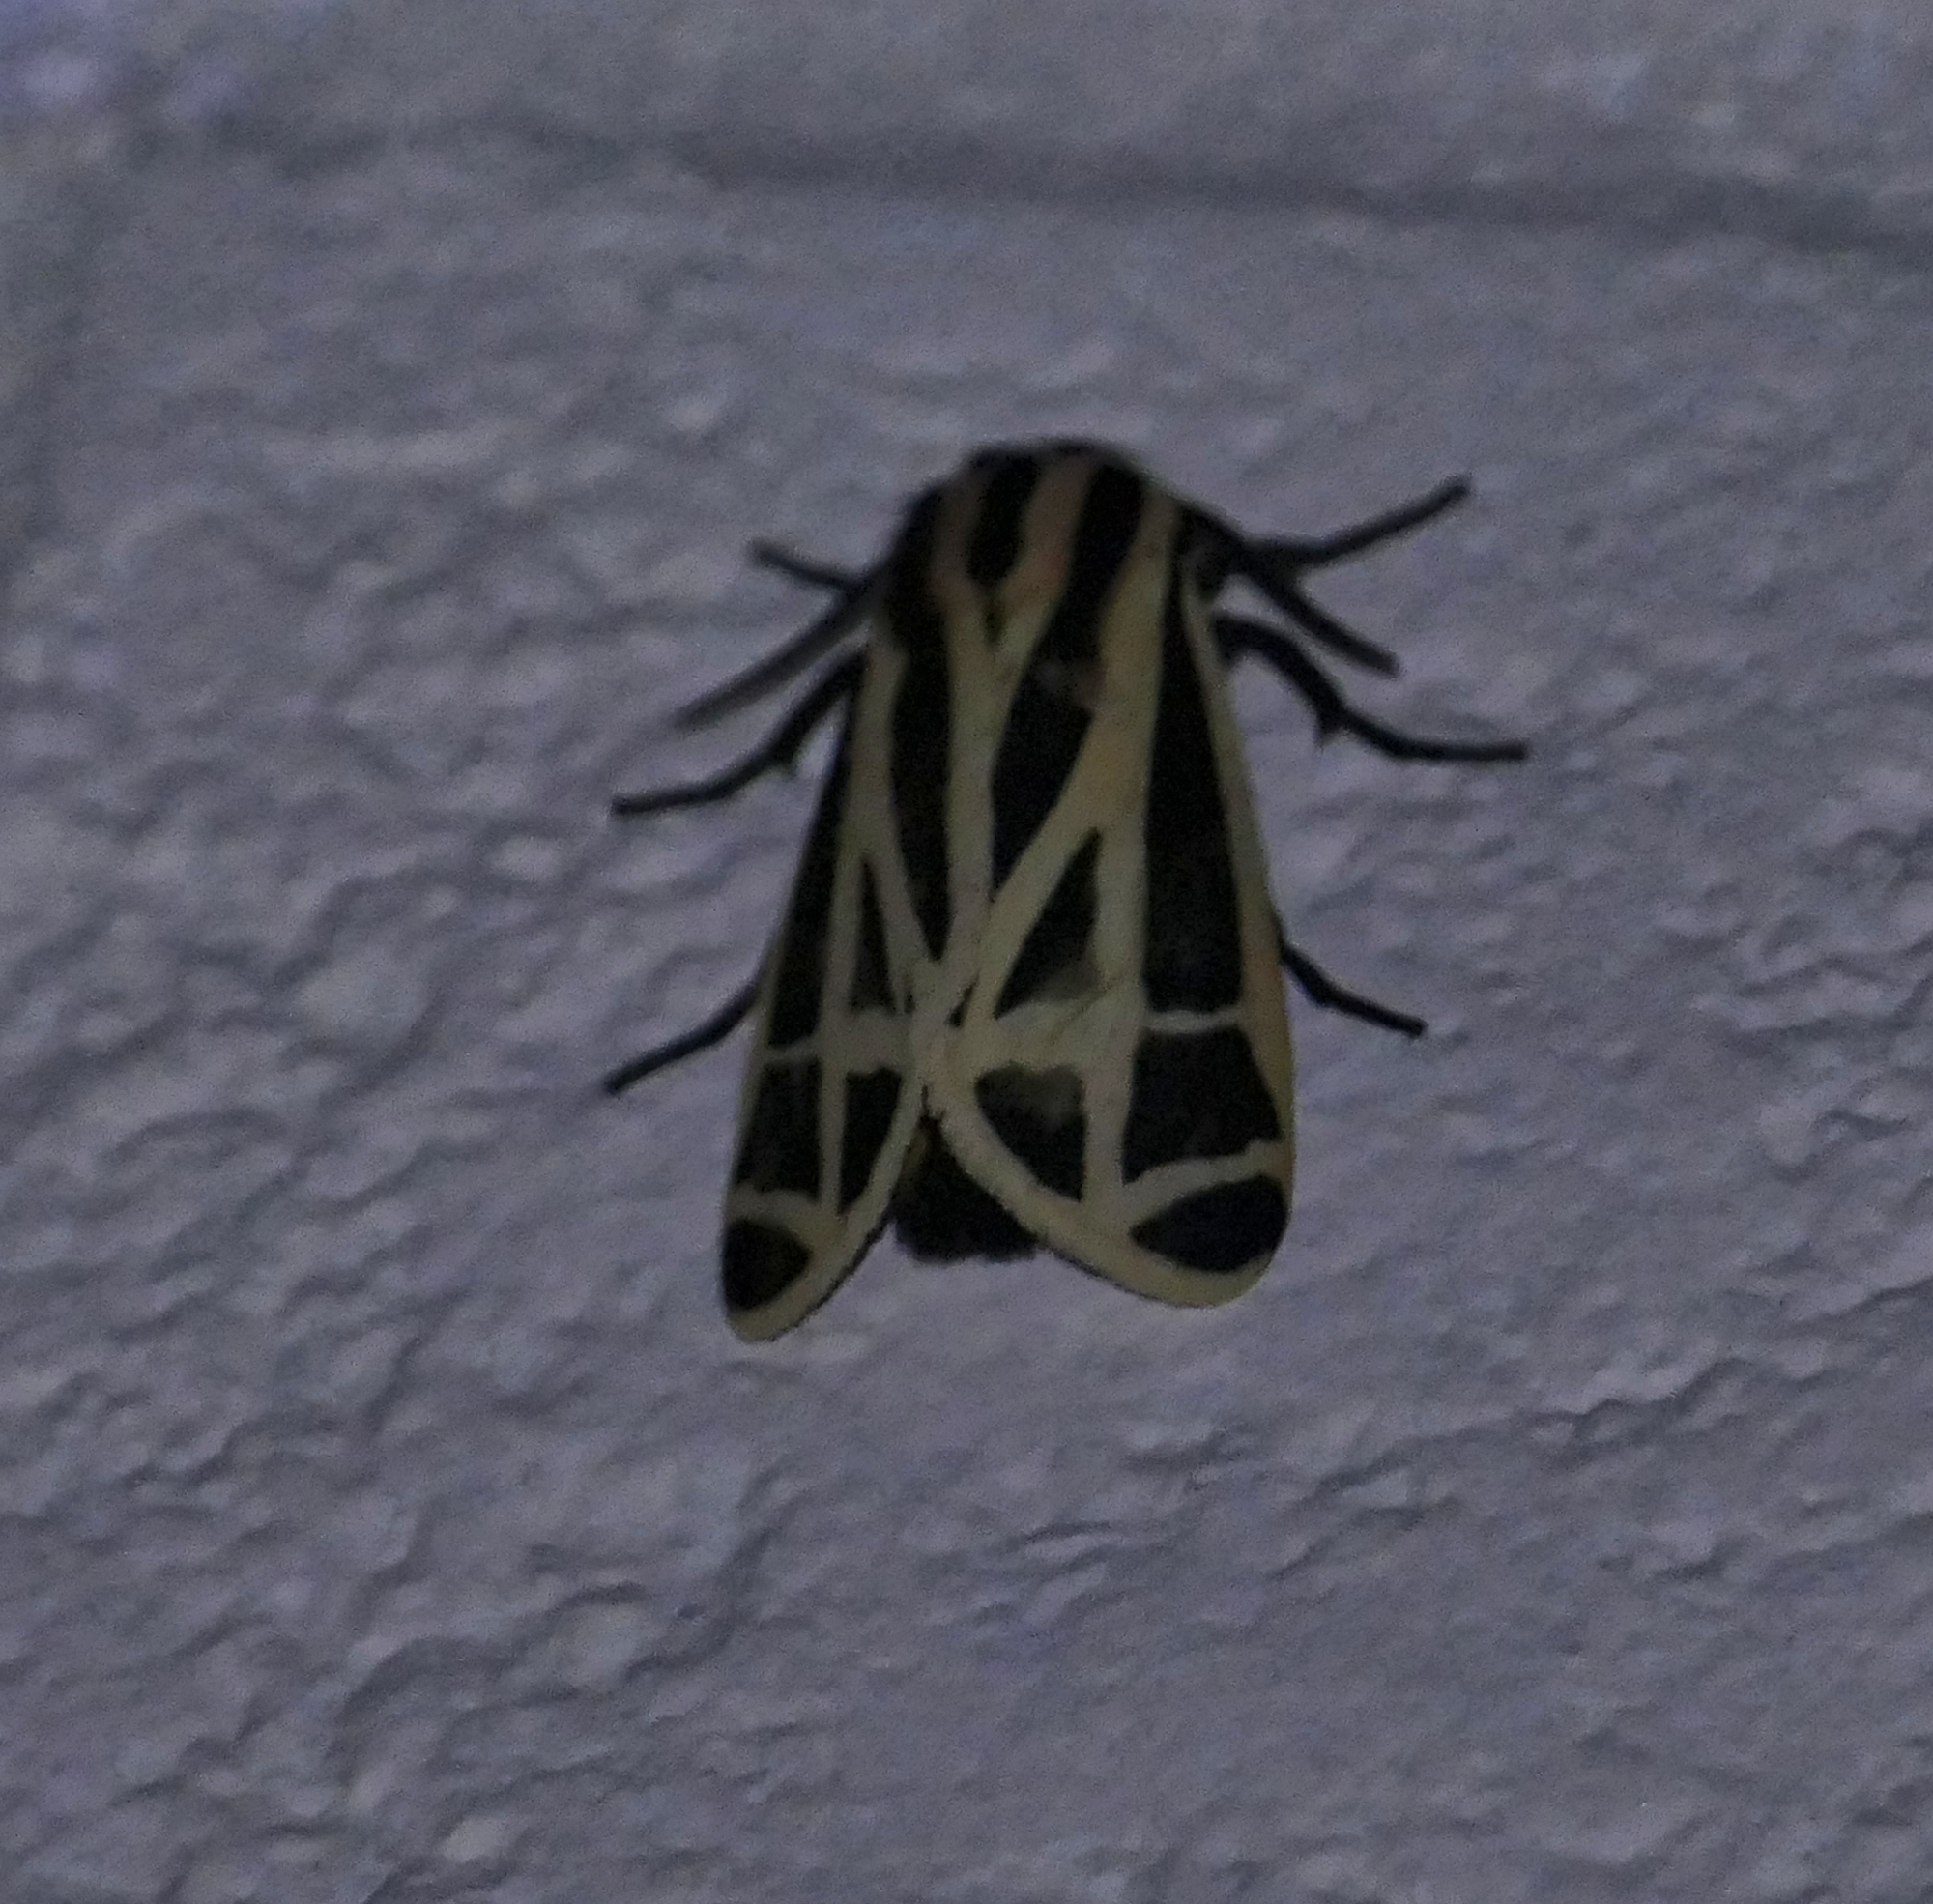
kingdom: Animalia
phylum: Arthropoda
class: Insecta
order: Lepidoptera
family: Erebidae
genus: Apantesis
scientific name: Apantesis phalerata
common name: Harnessed tiger moth
